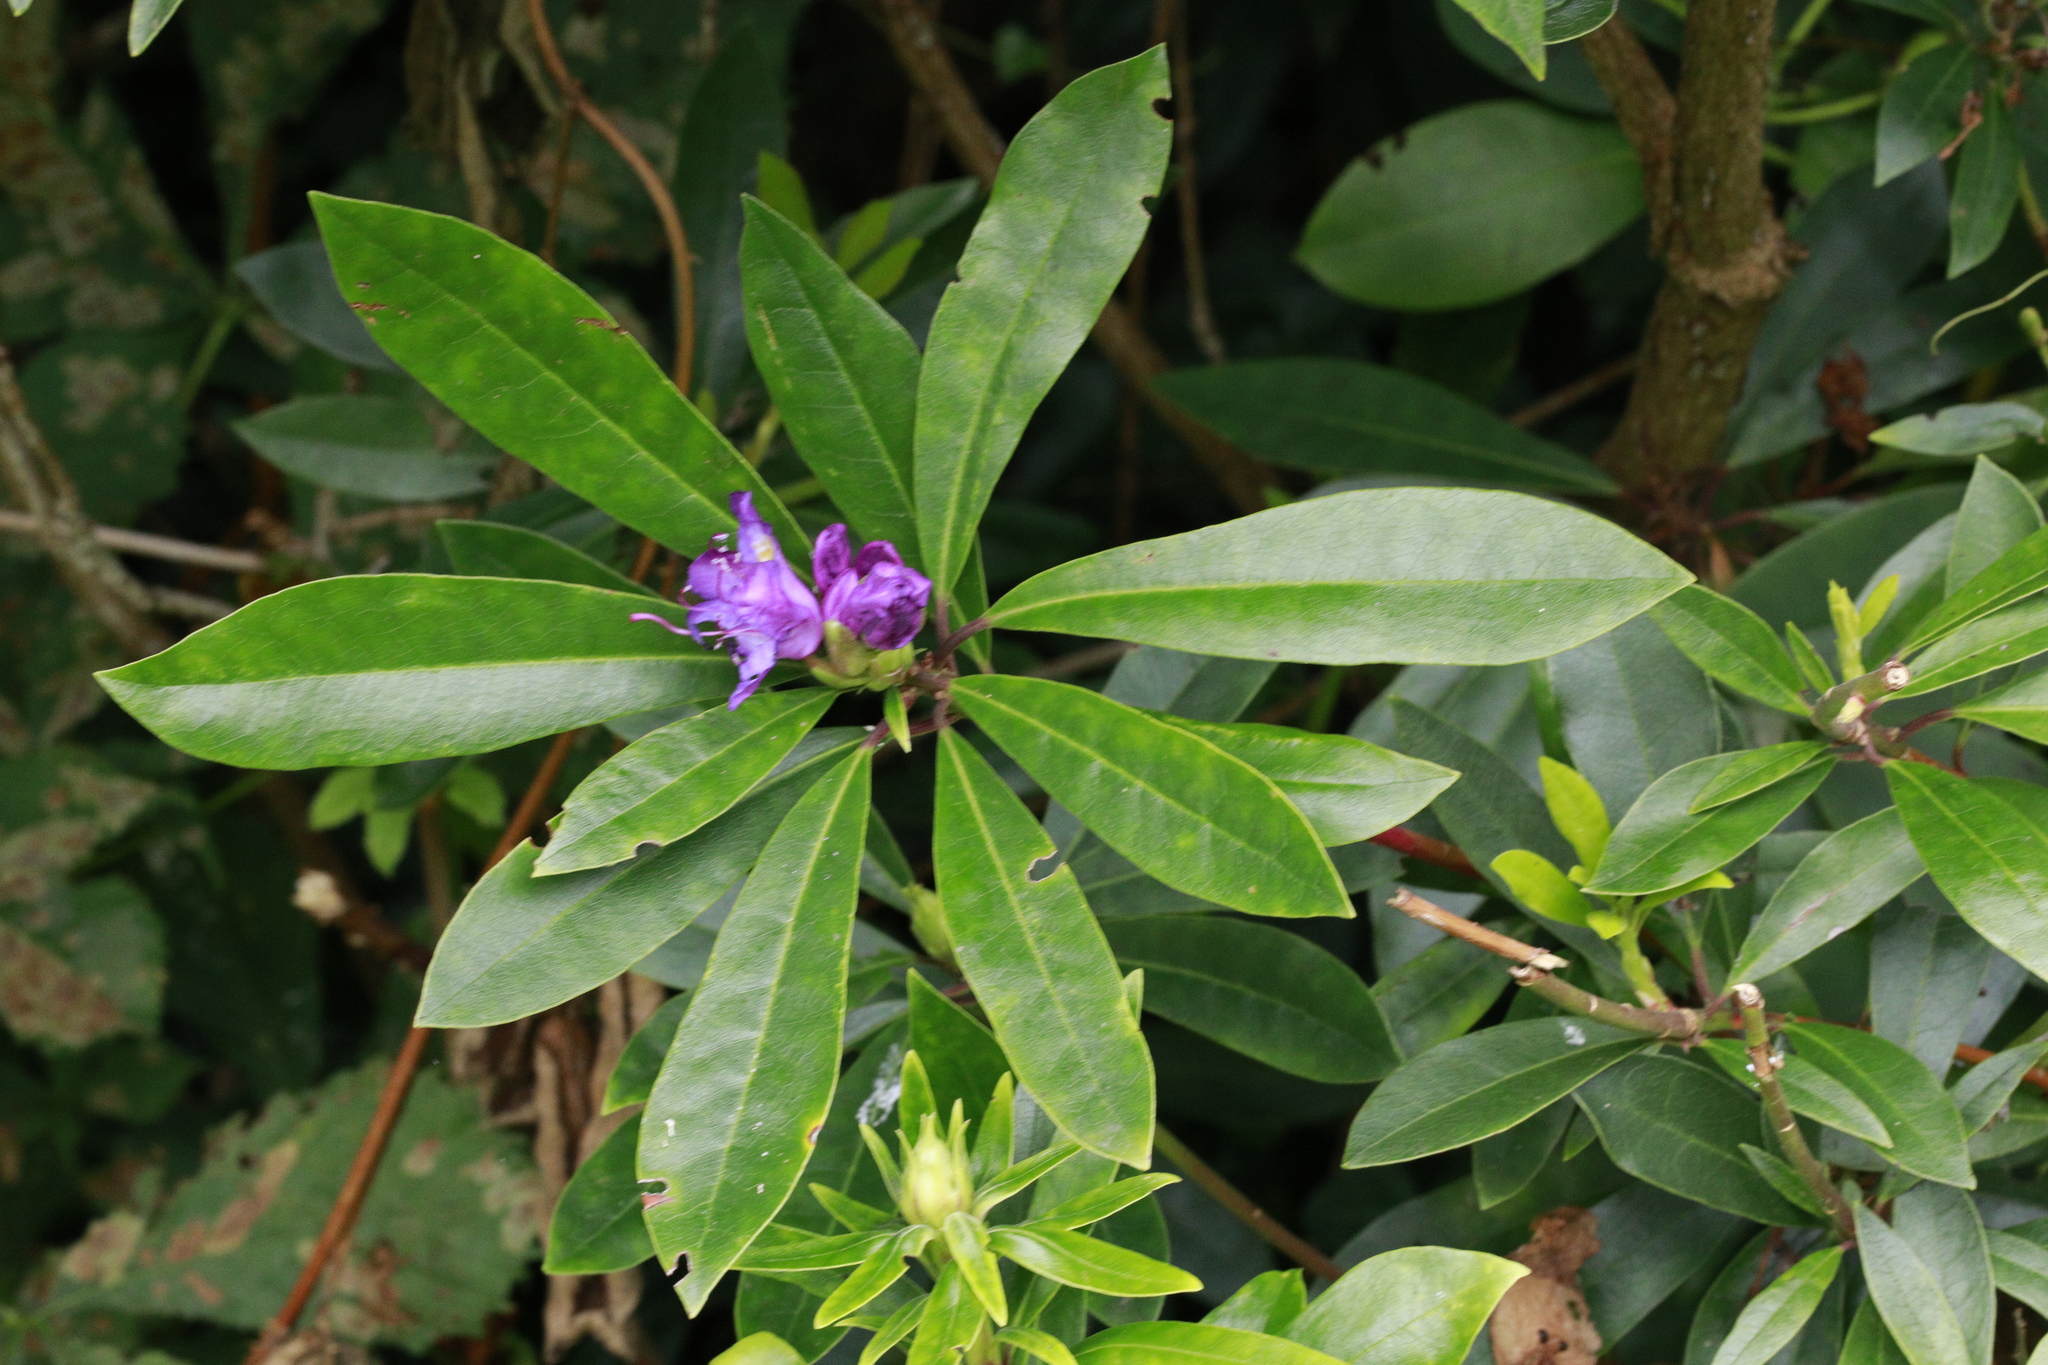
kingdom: Plantae
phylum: Tracheophyta
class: Magnoliopsida
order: Ericales
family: Ericaceae
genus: Rhododendron
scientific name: Rhododendron ponticum
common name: Rhododendron
